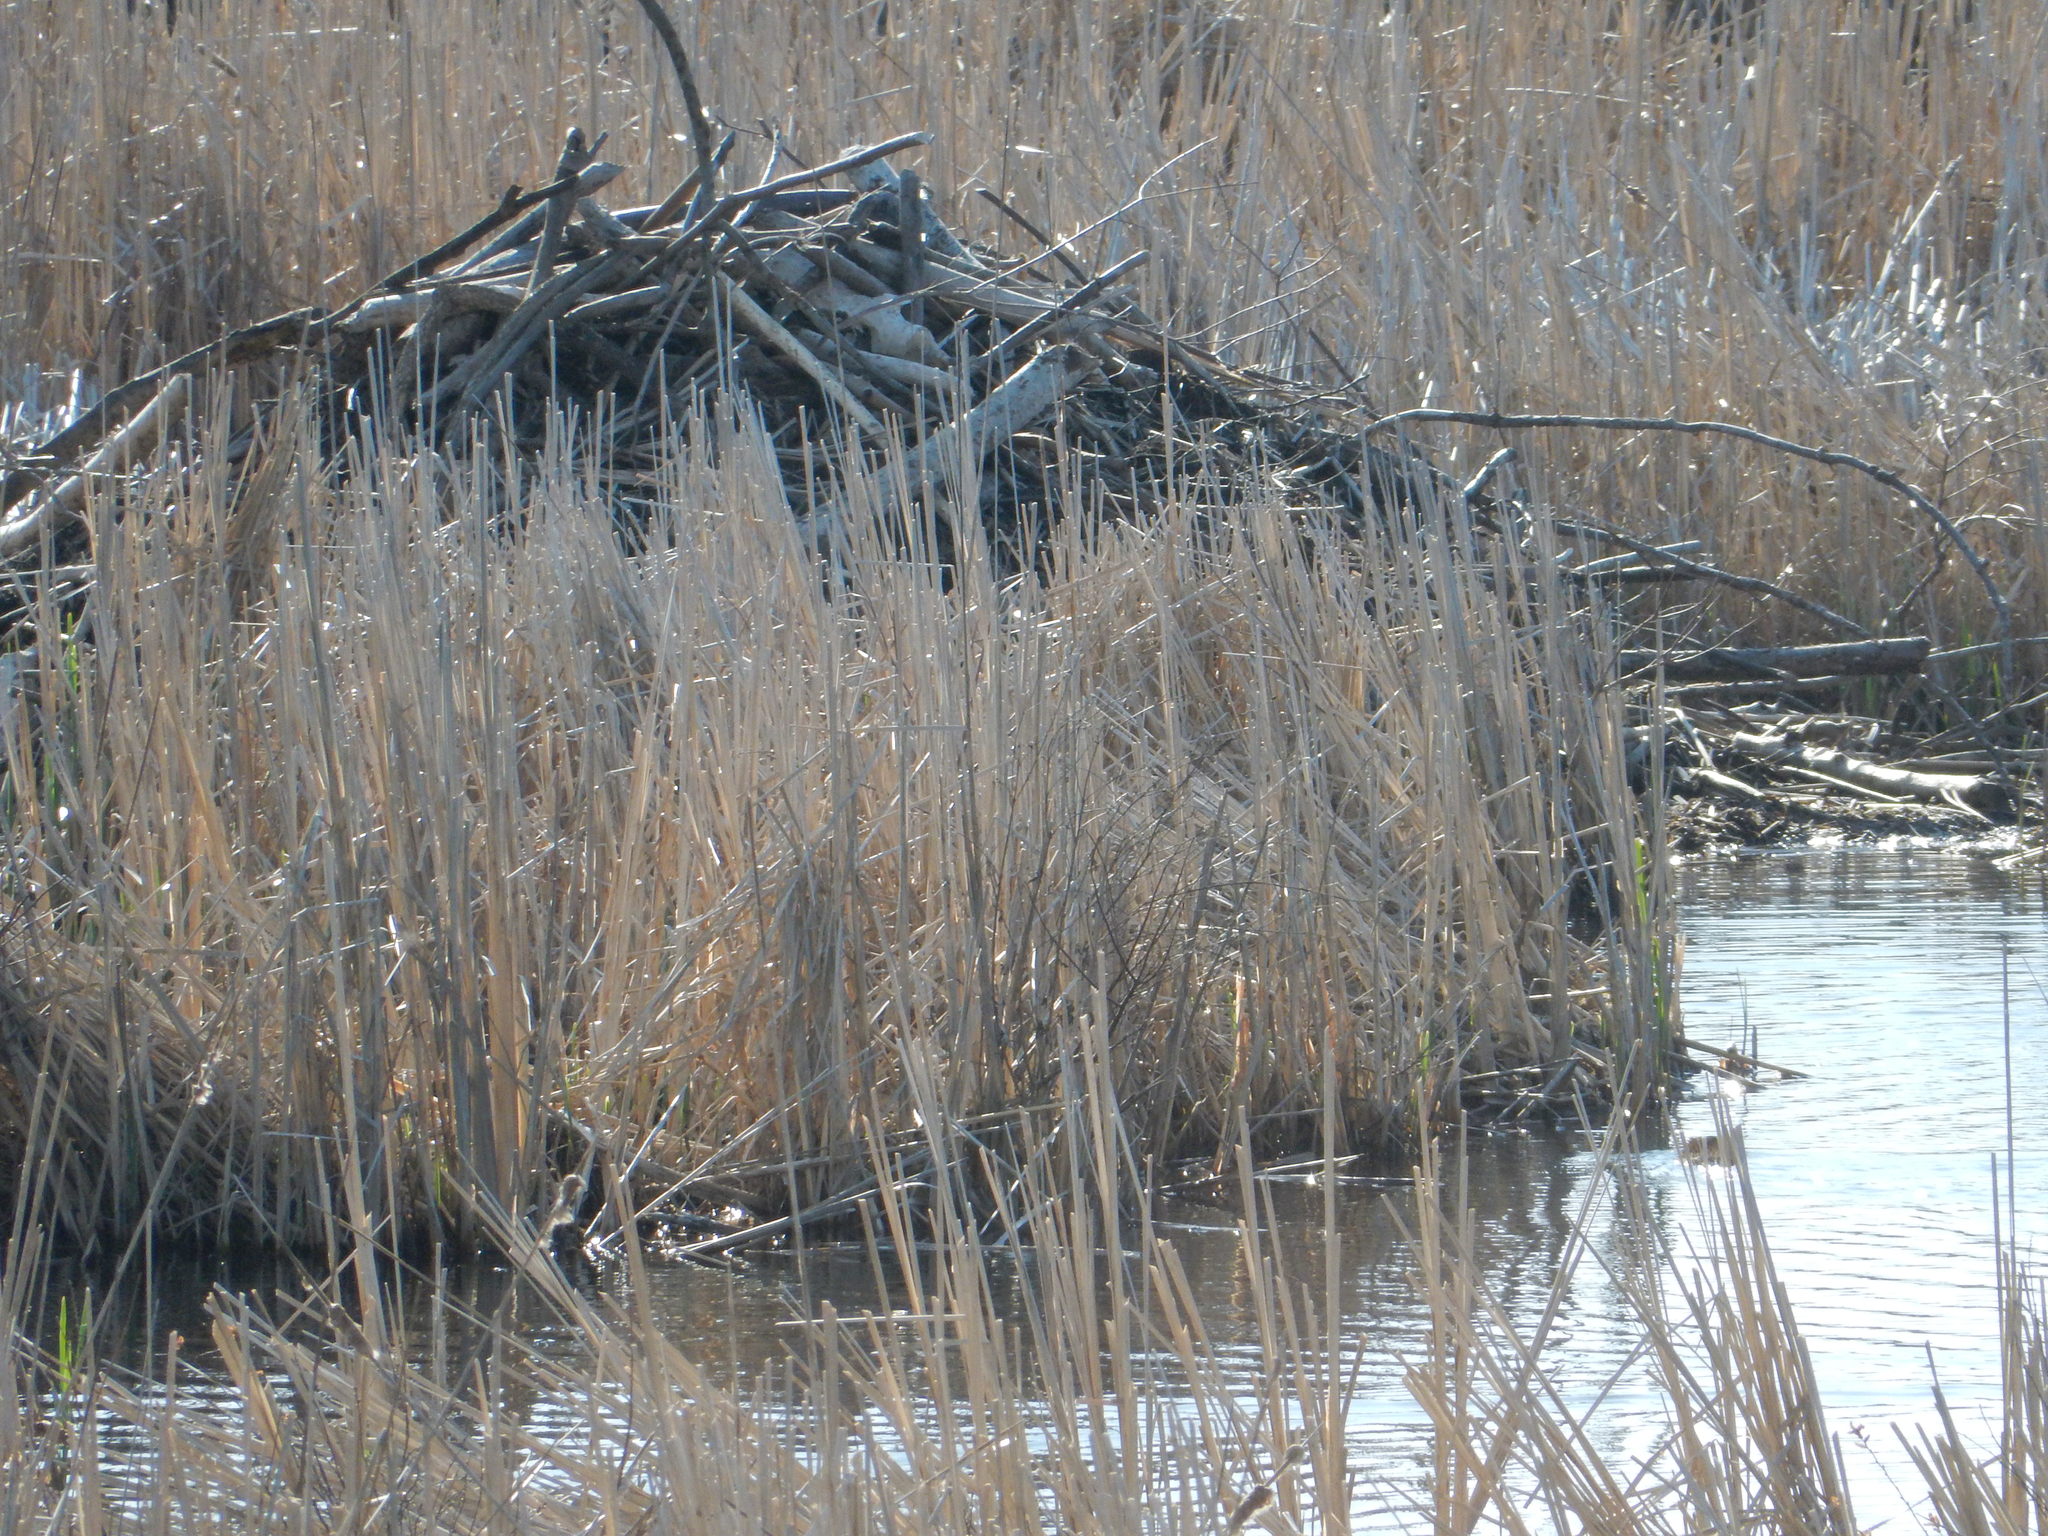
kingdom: Animalia
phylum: Chordata
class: Mammalia
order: Rodentia
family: Castoridae
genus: Castor
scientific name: Castor canadensis
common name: American beaver
